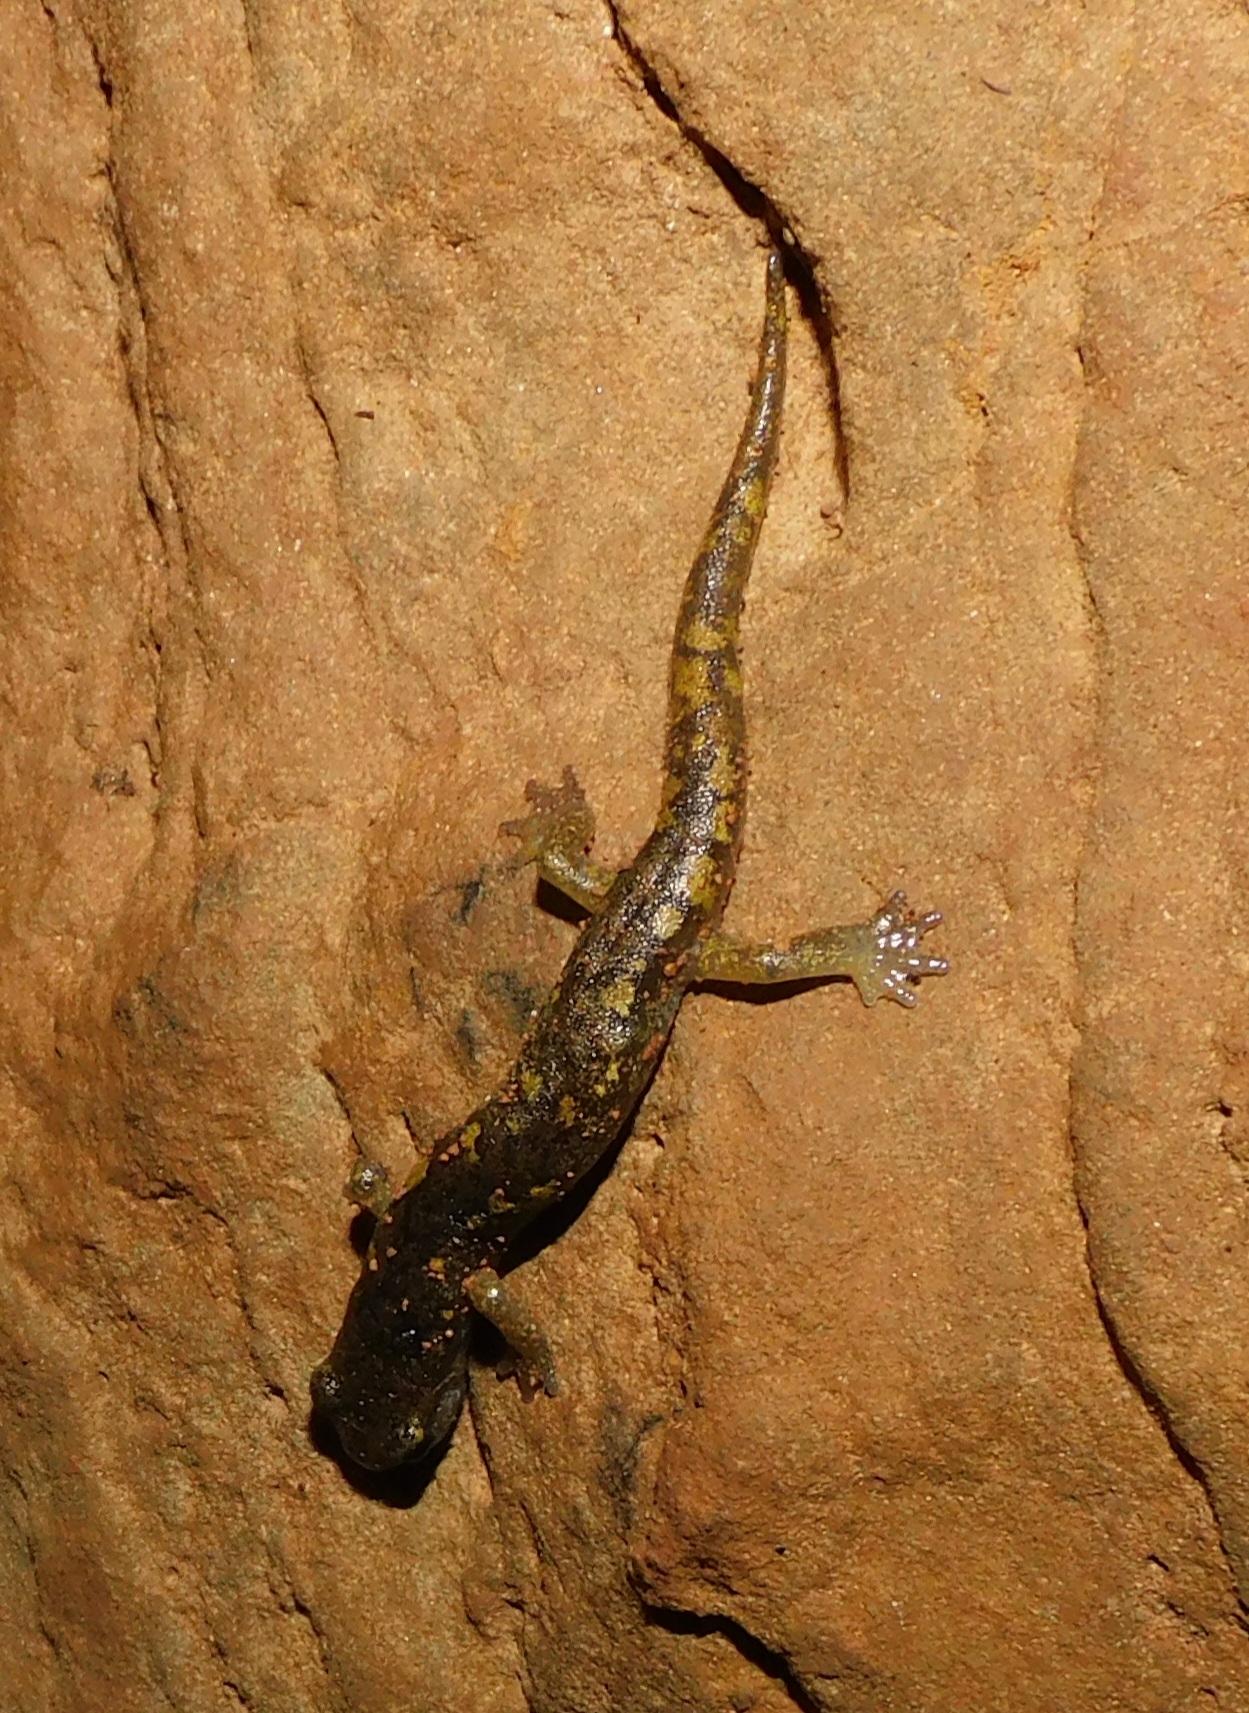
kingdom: Animalia
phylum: Chordata
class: Amphibia
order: Caudata
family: Plethodontidae
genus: Speleomantes
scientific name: Speleomantes genei
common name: Gene's cave salamander
